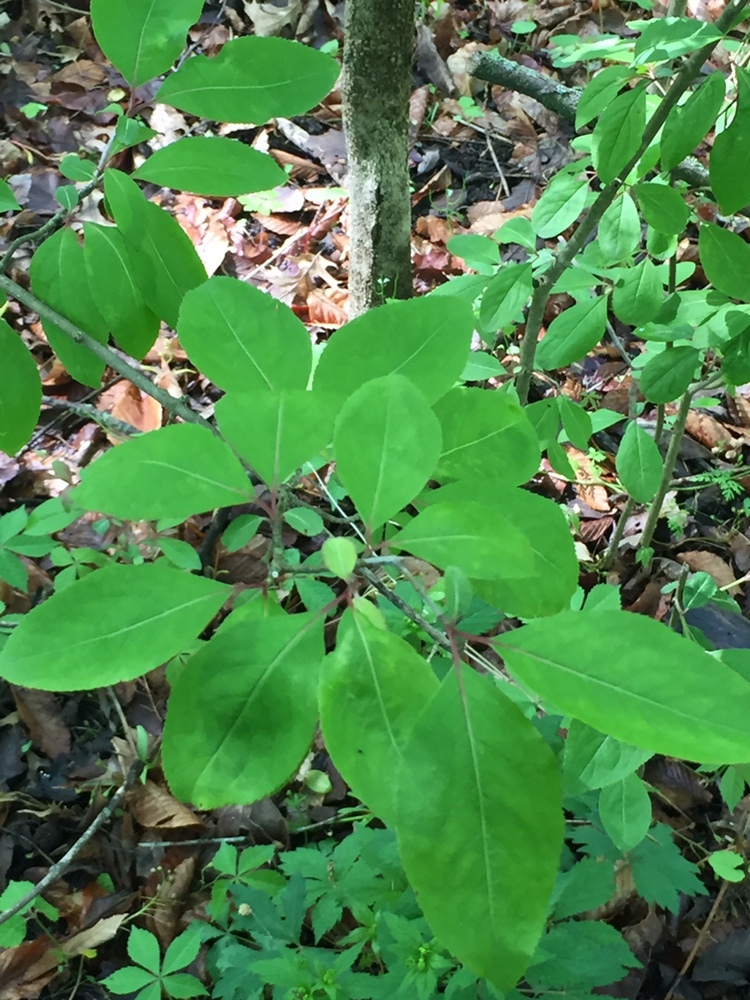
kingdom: Plantae
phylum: Tracheophyta
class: Magnoliopsida
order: Dipsacales
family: Viburnaceae
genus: Viburnum
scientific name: Viburnum prunifolium
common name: Black haw
